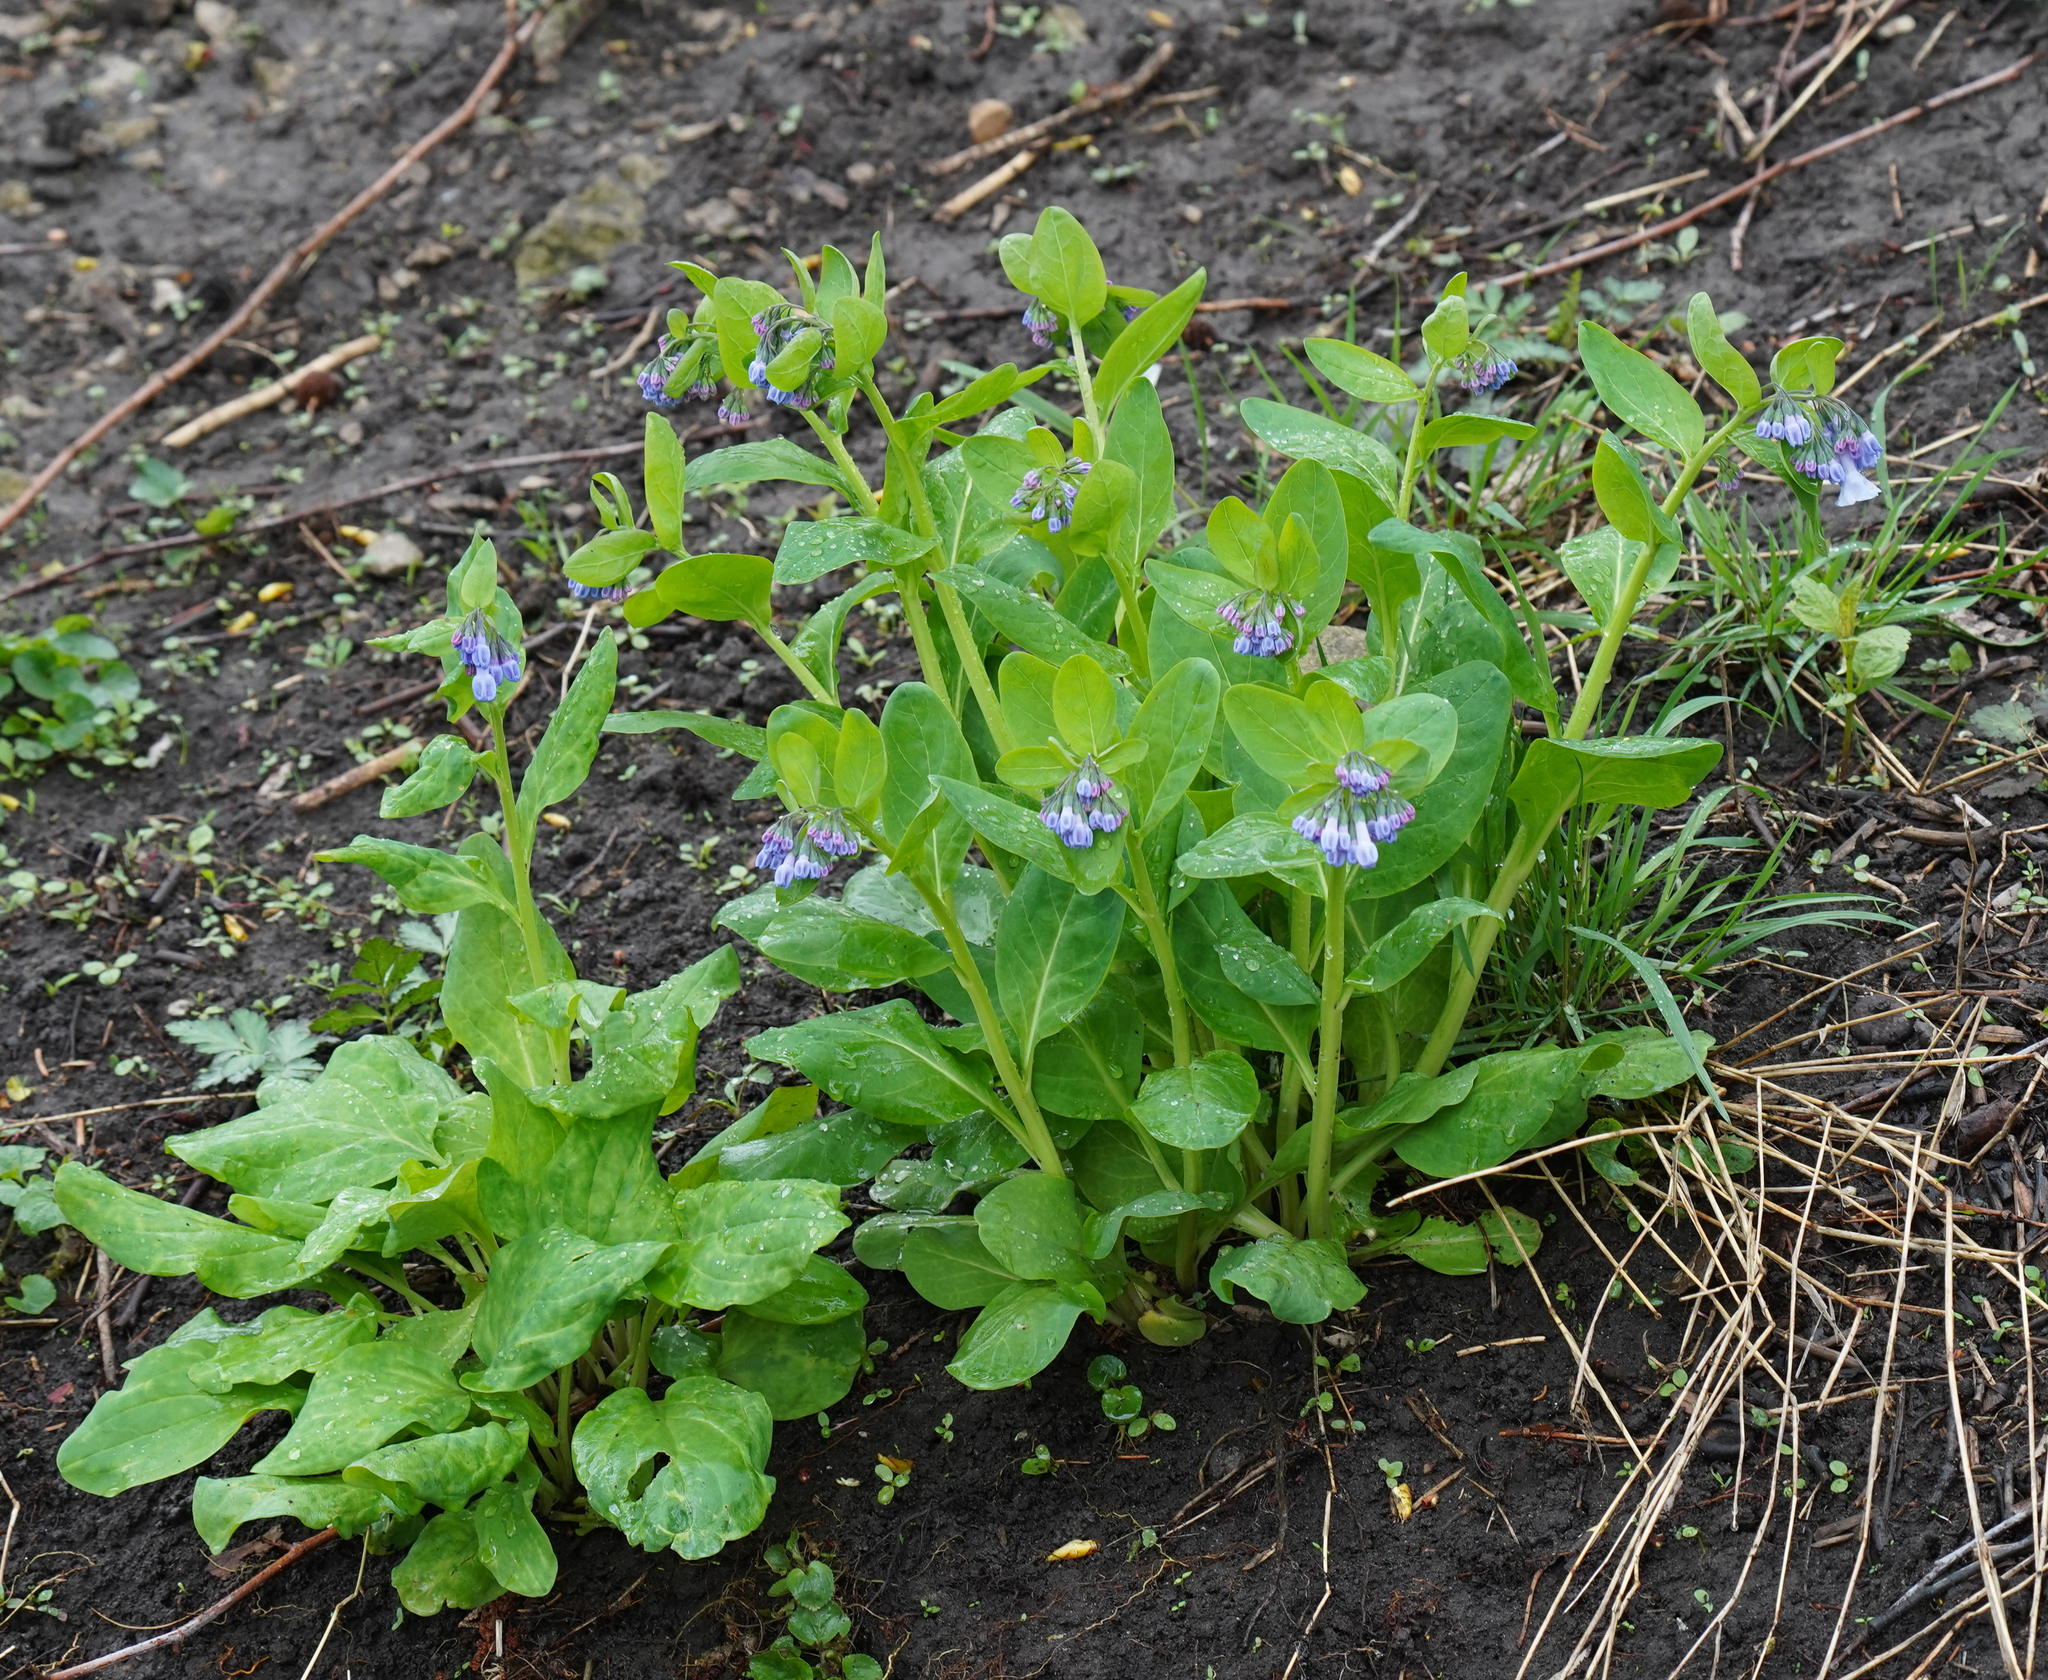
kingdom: Plantae
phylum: Tracheophyta
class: Magnoliopsida
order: Boraginales
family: Boraginaceae
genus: Mertensia
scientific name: Mertensia virginica
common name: Virginia bluebells
